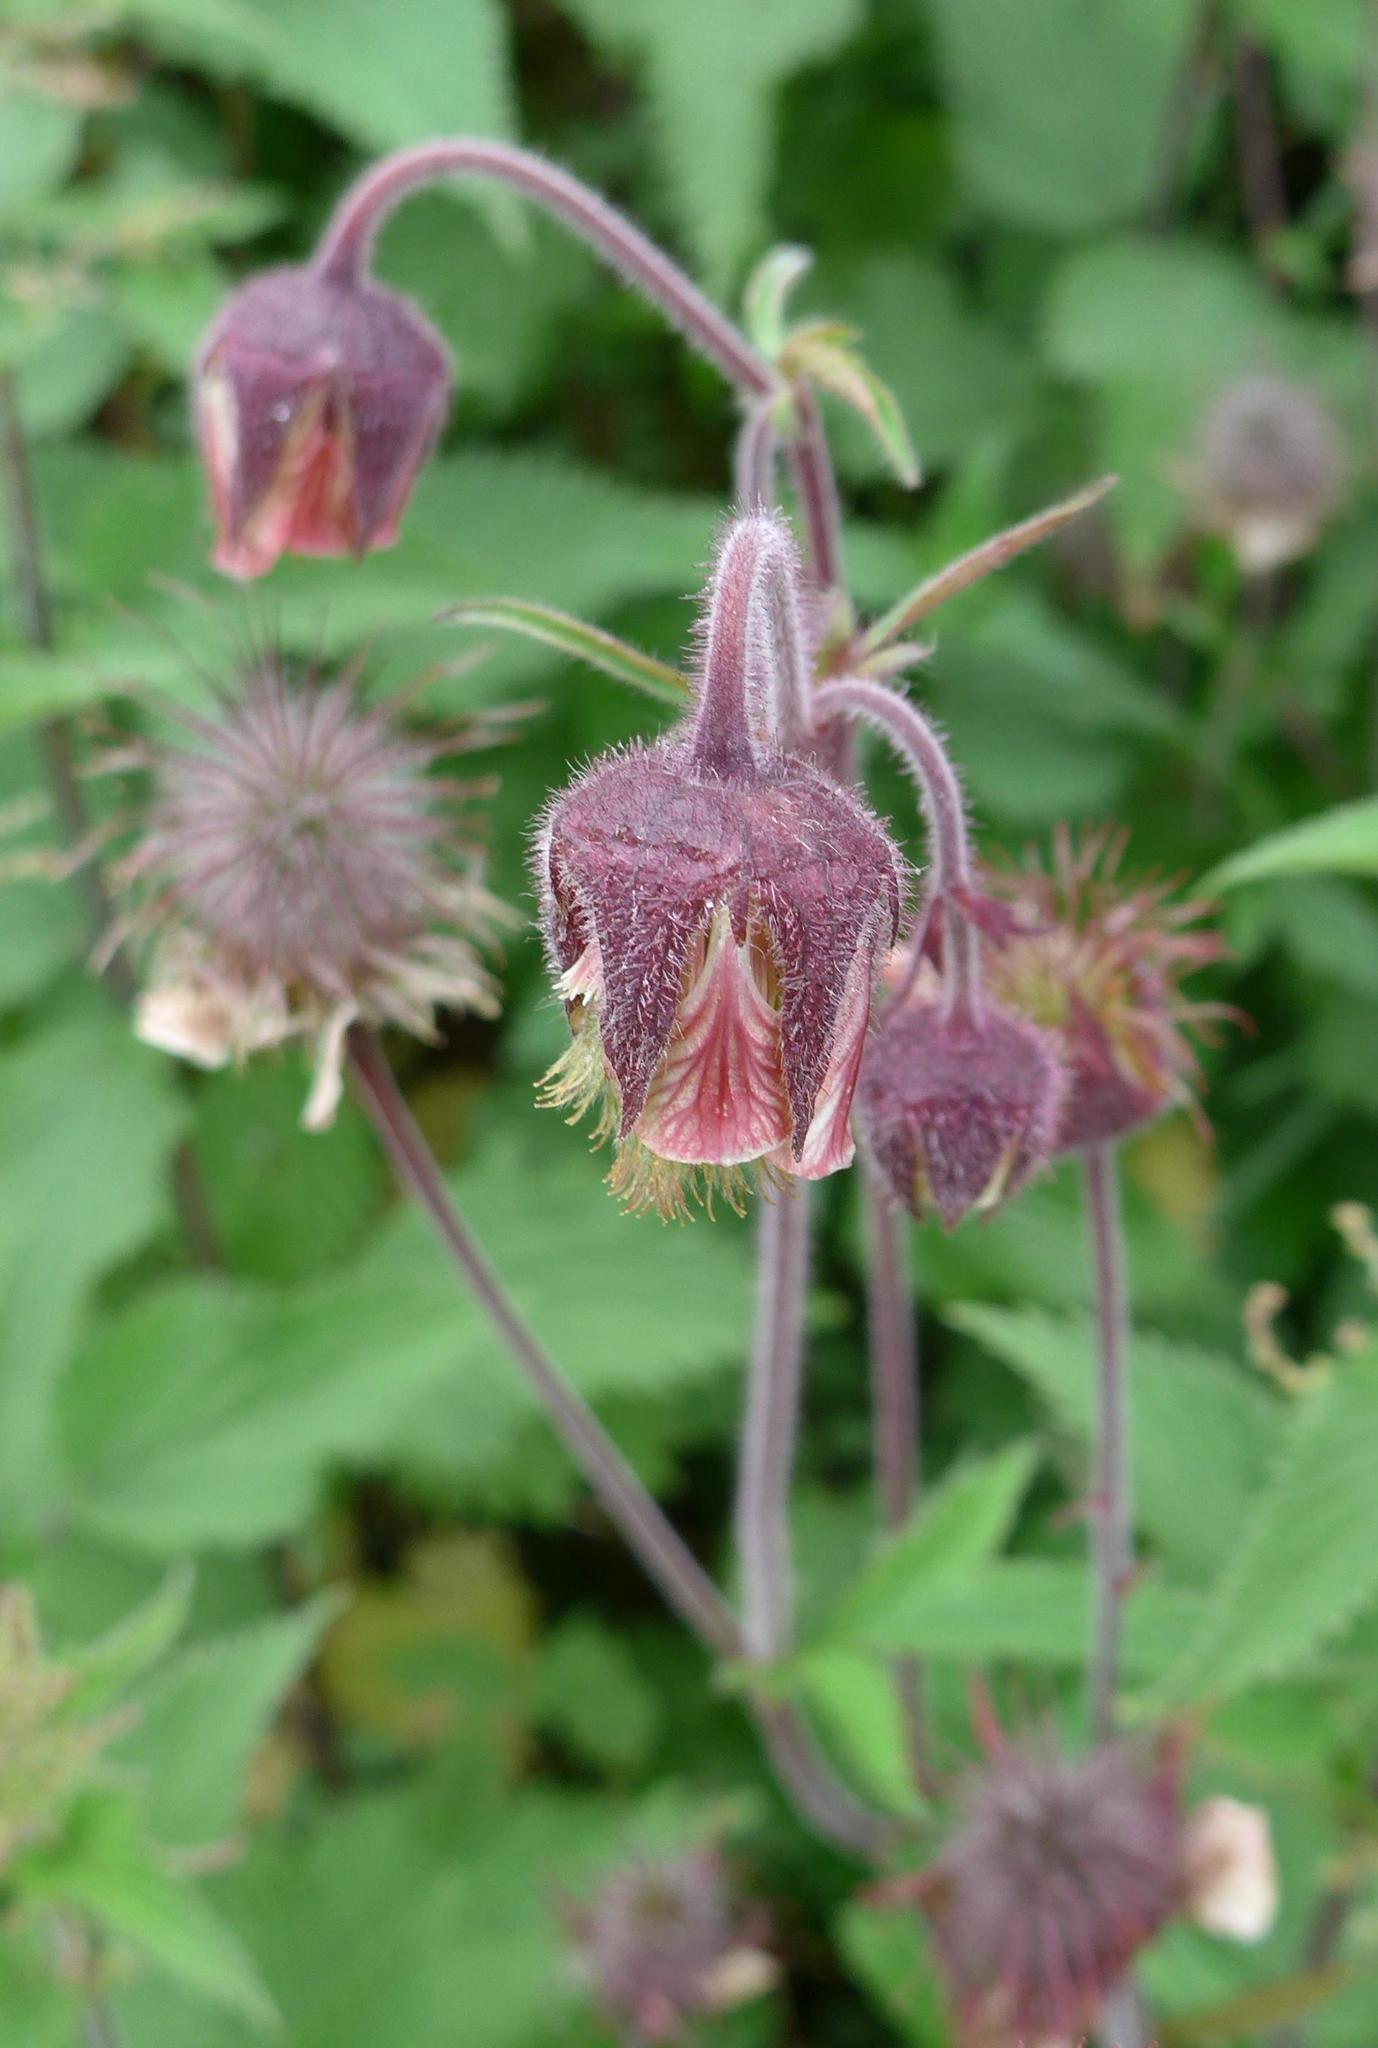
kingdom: Plantae
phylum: Tracheophyta
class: Magnoliopsida
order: Rosales
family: Rosaceae
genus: Geum
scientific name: Geum rivale
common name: Water avens
